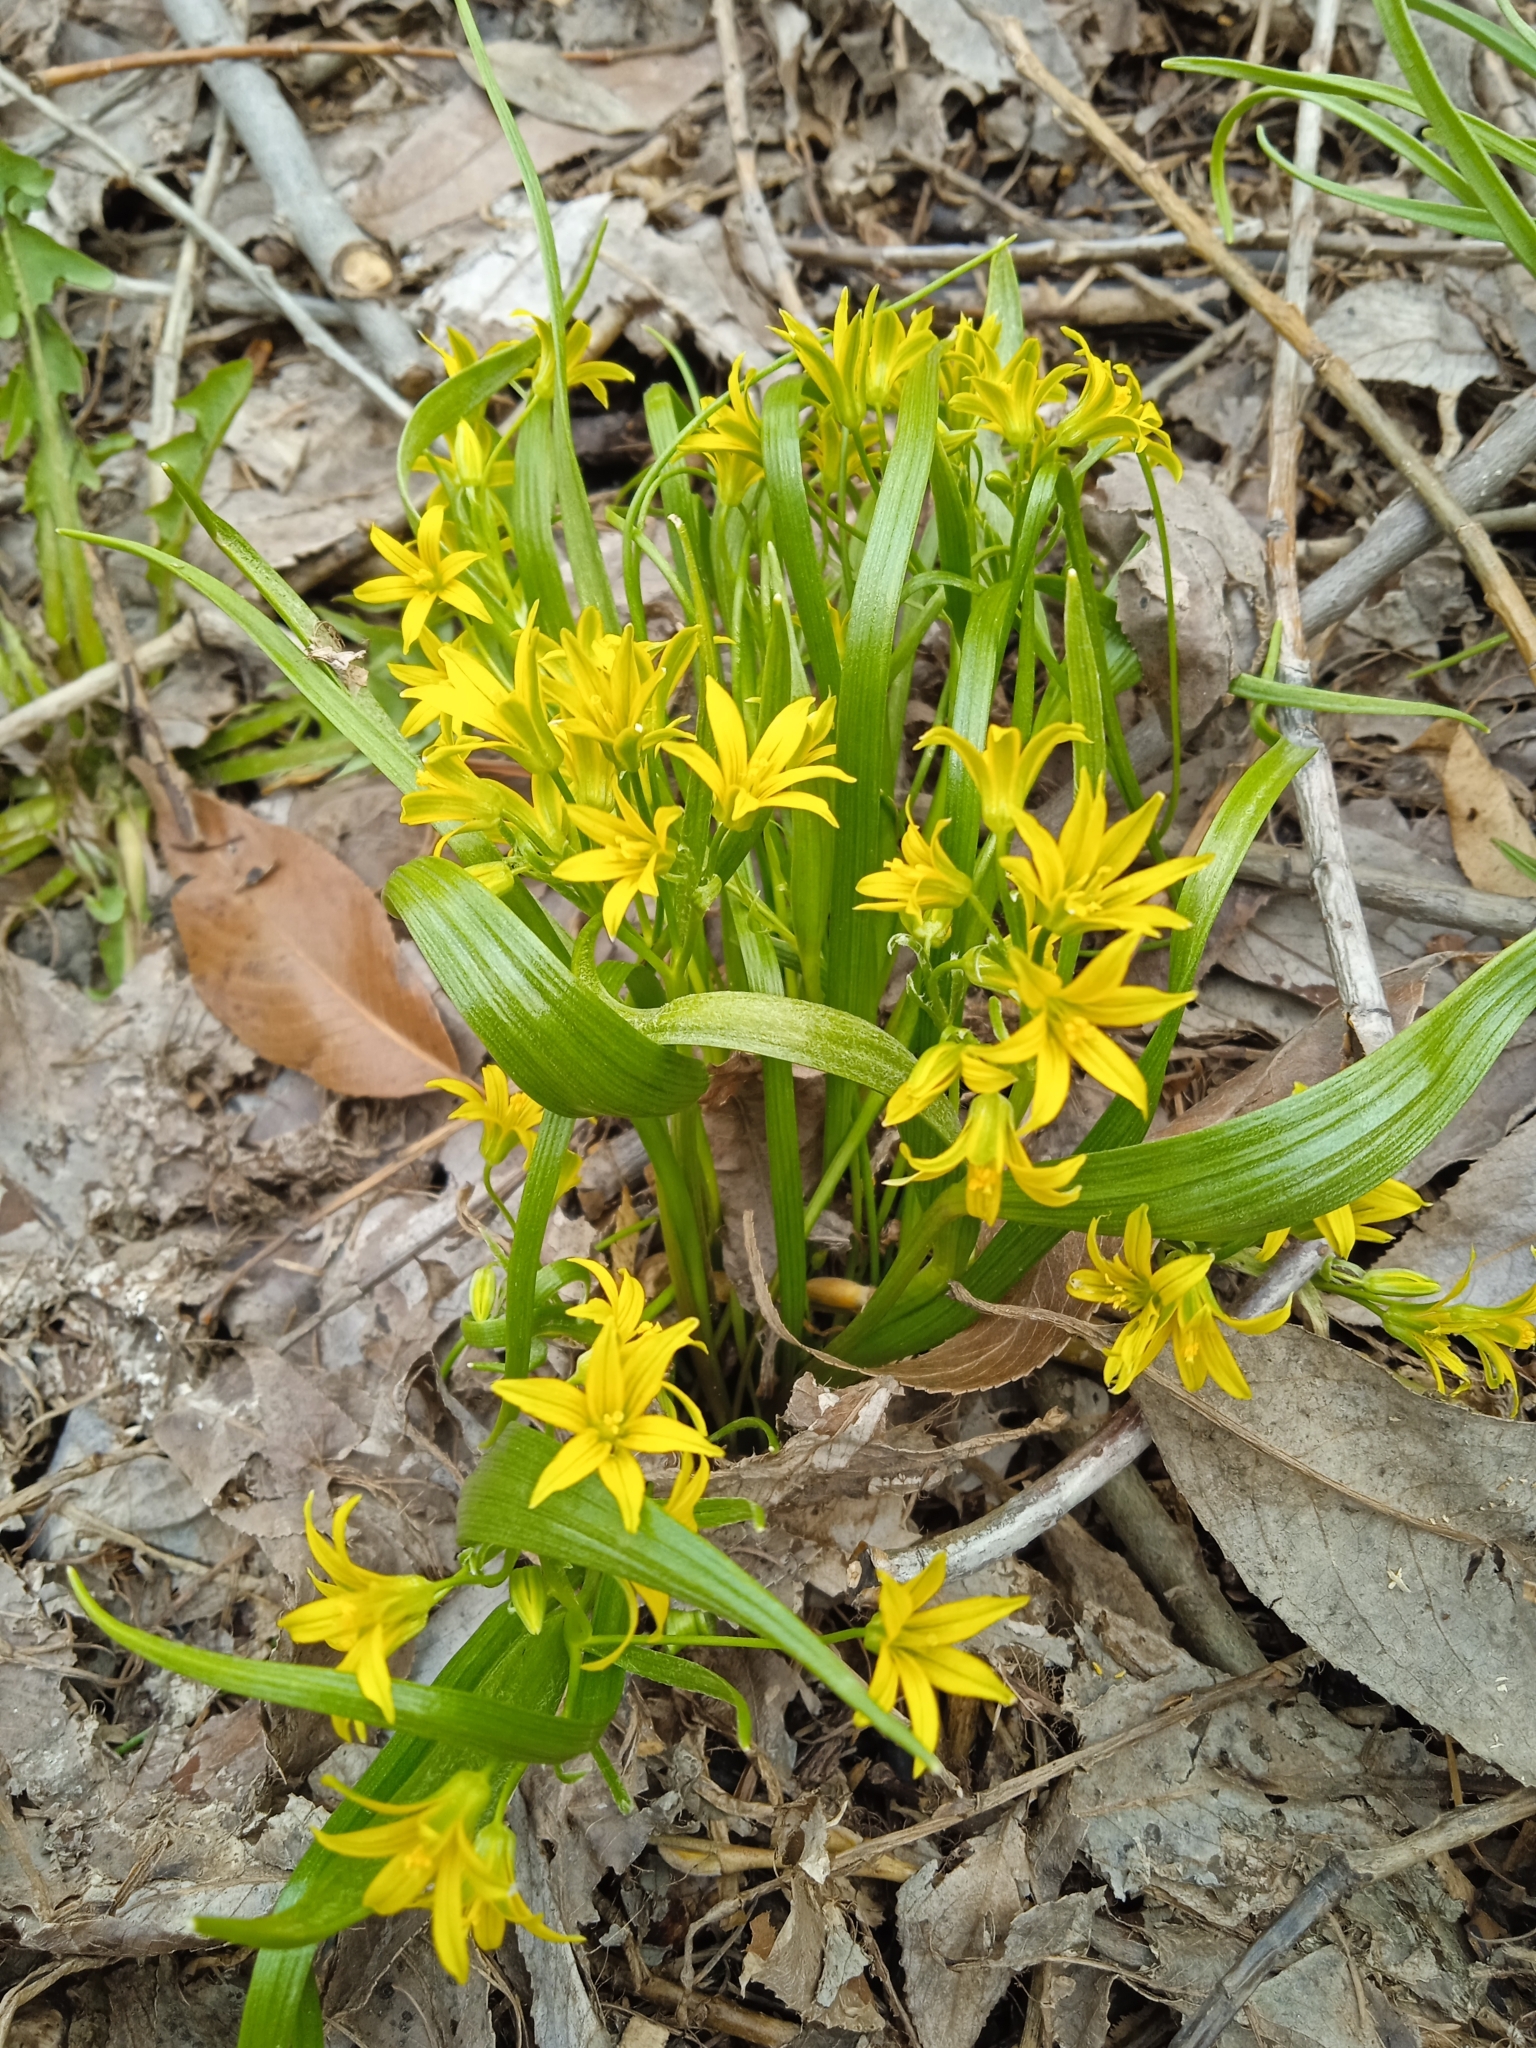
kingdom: Plantae
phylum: Tracheophyta
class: Liliopsida
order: Liliales
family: Liliaceae
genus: Gagea
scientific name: Gagea minima
